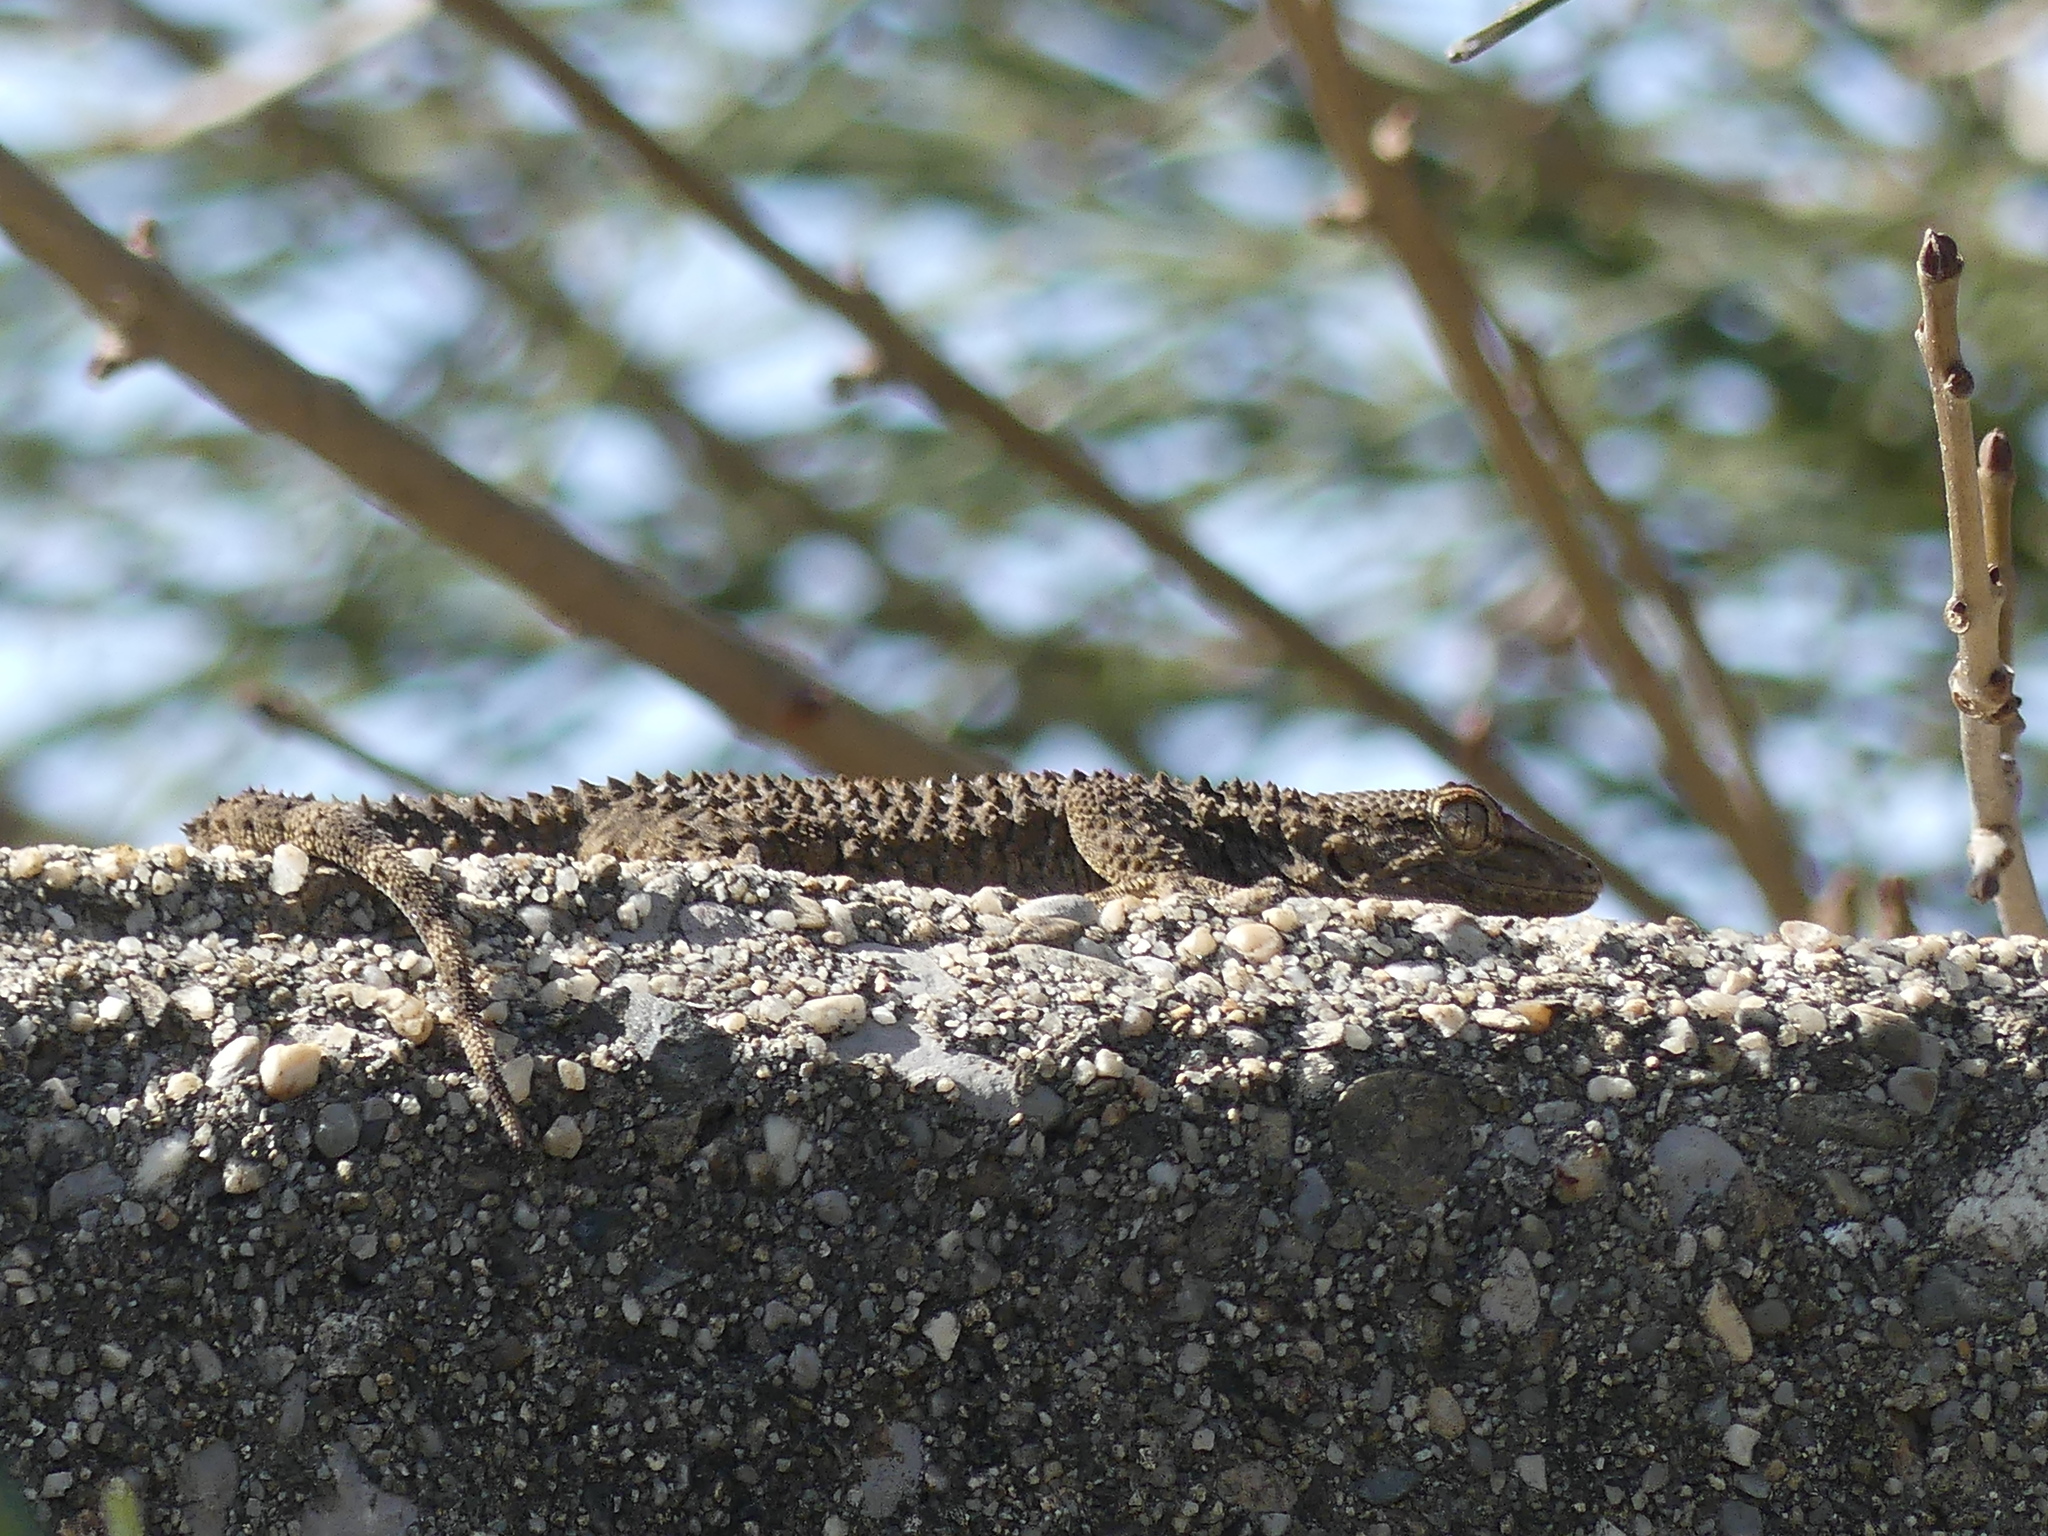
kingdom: Animalia
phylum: Chordata
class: Squamata
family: Phyllodactylidae
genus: Tarentola
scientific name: Tarentola mauritanica
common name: Moorish gecko
